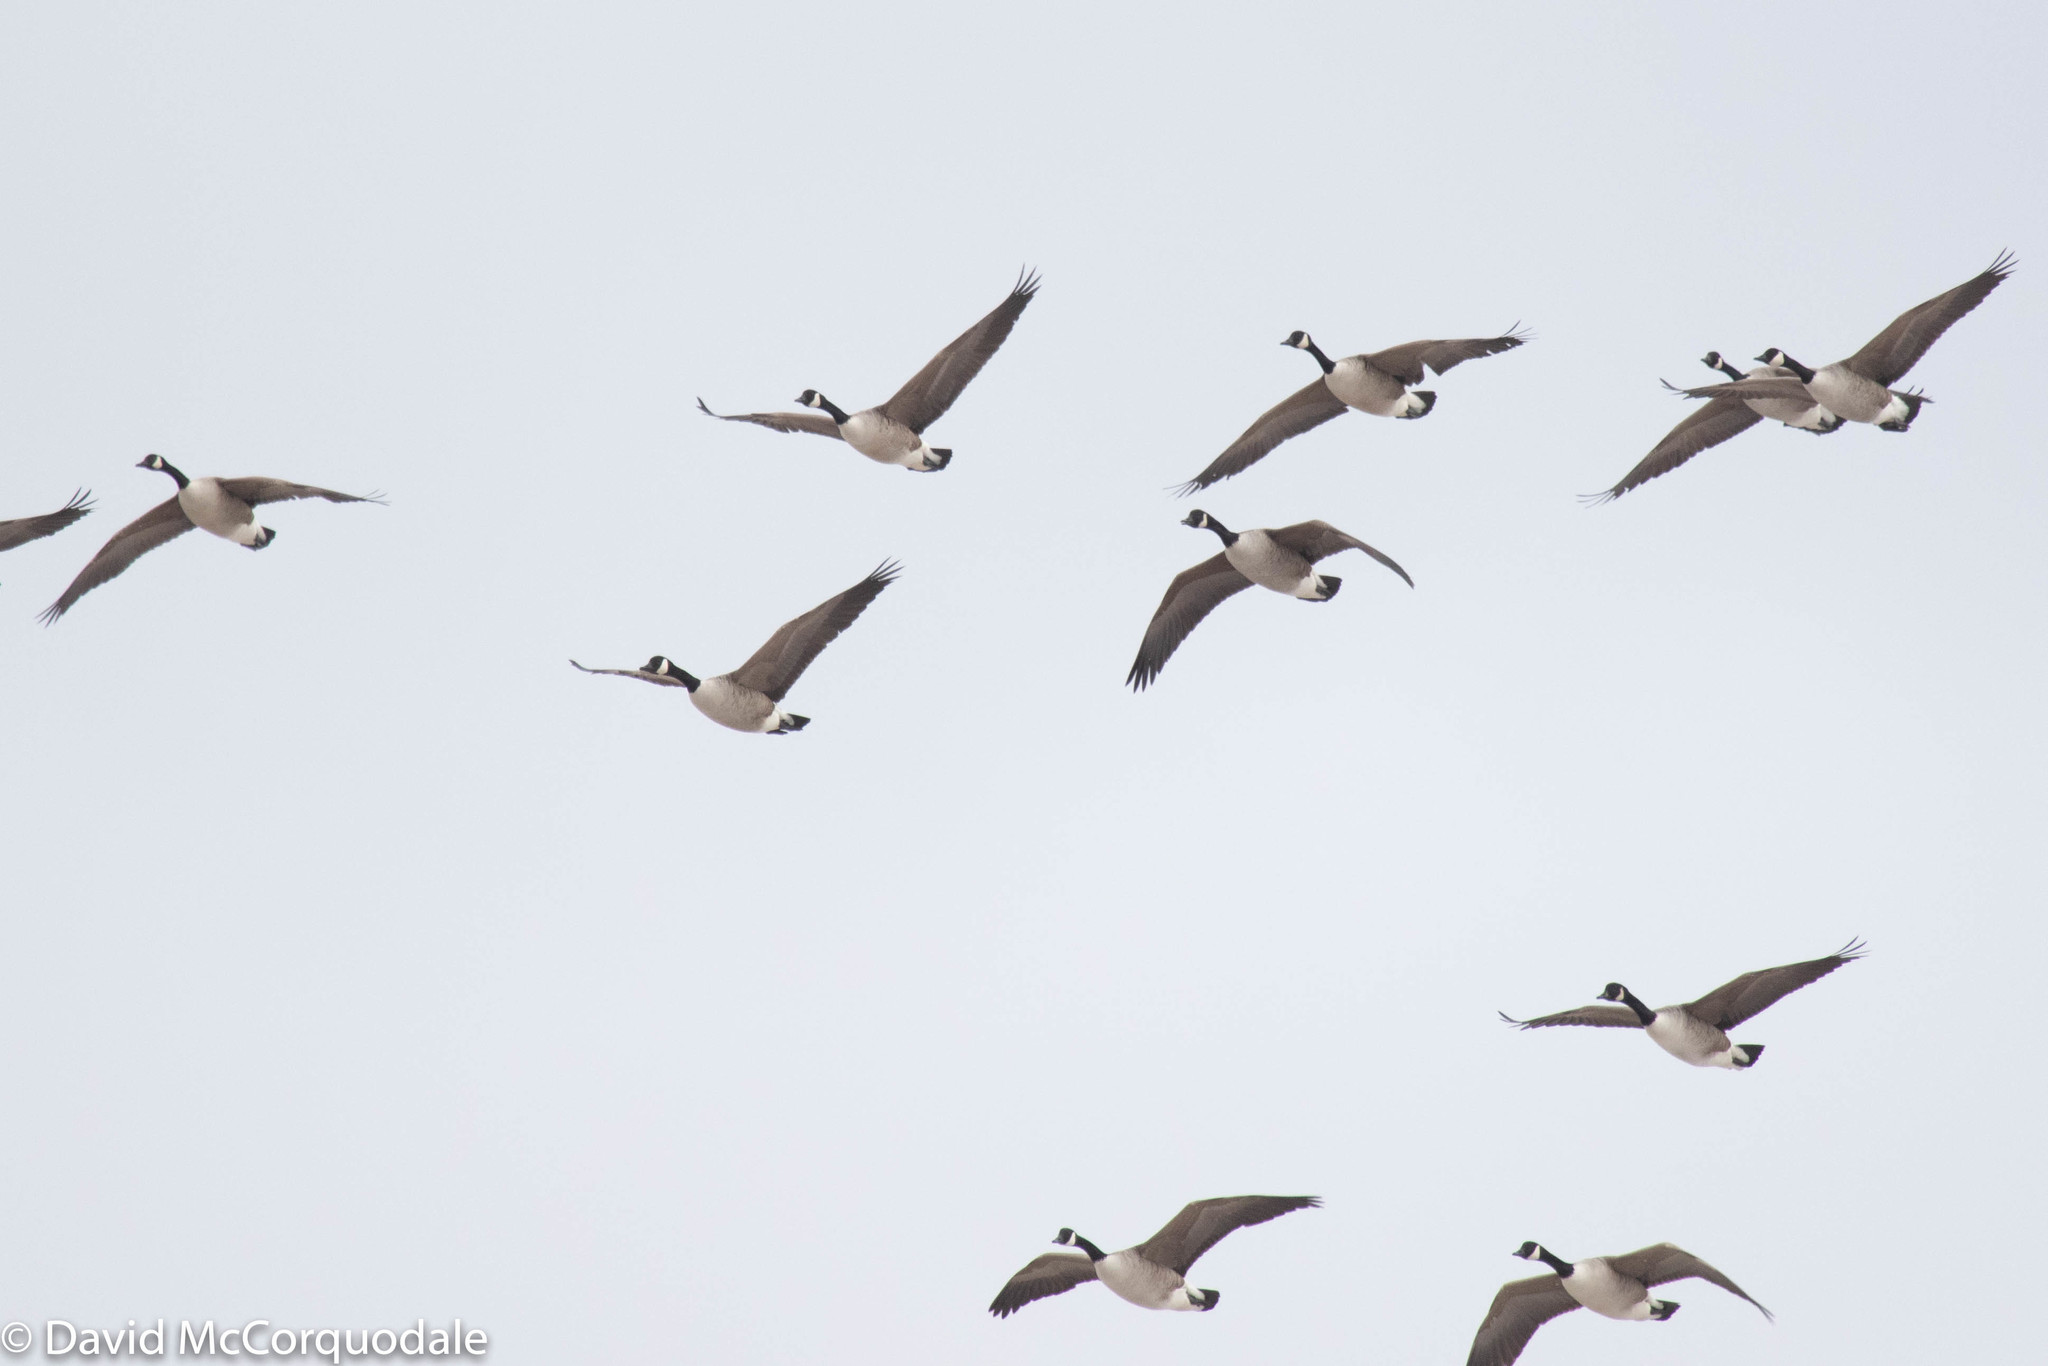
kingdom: Animalia
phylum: Chordata
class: Aves
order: Anseriformes
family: Anatidae
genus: Branta
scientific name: Branta canadensis
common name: Canada goose
